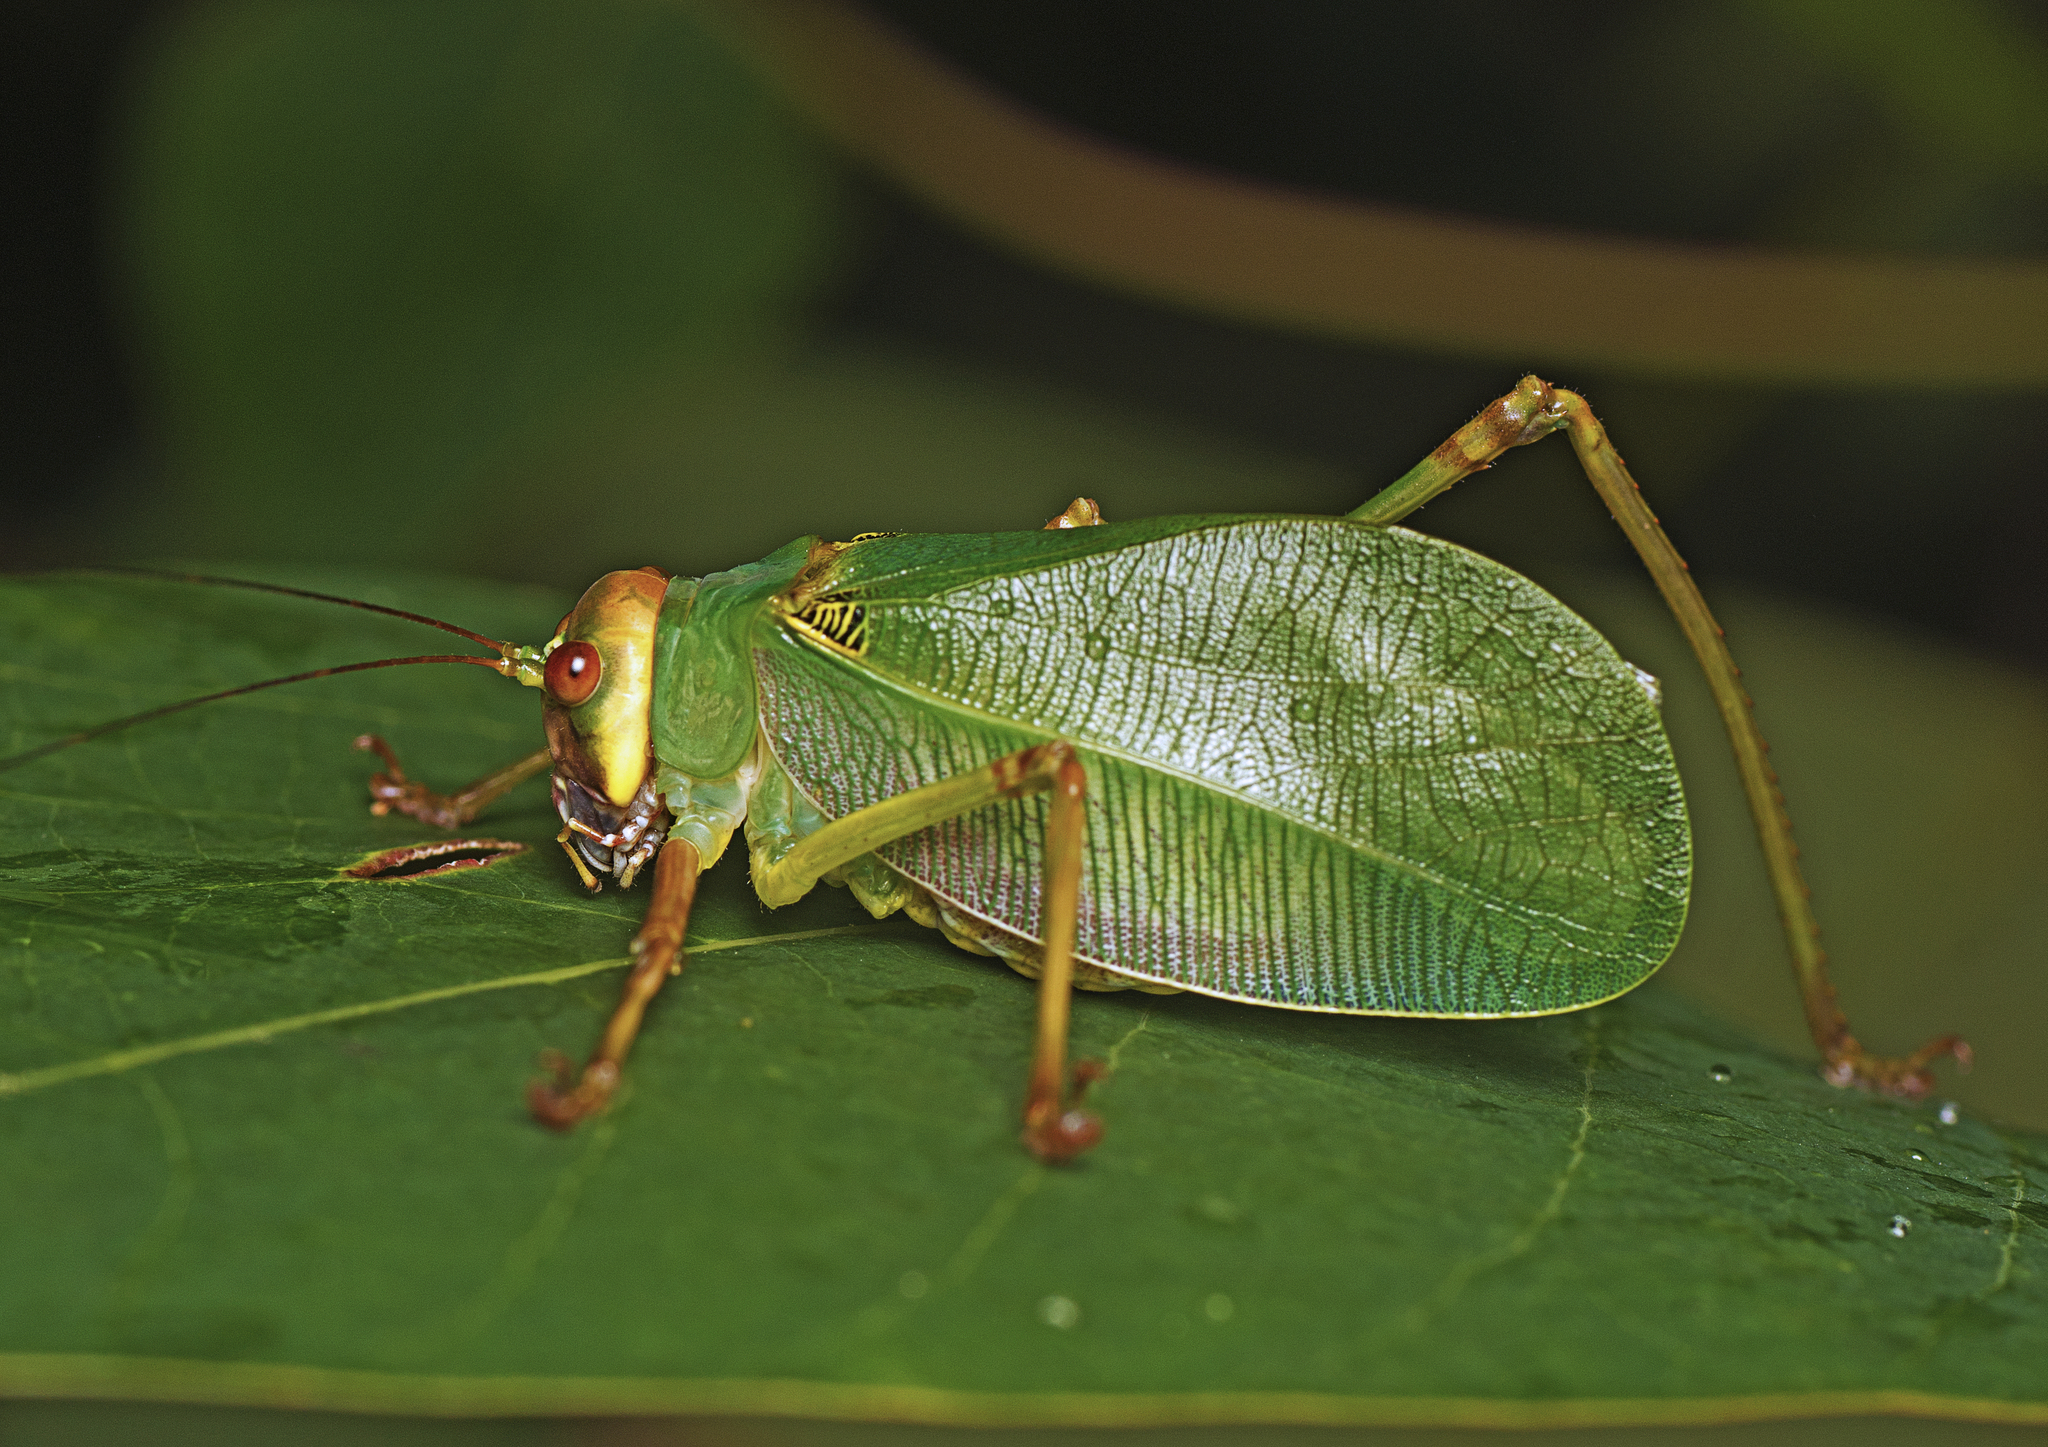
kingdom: Animalia
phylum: Arthropoda
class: Insecta
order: Orthoptera
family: Tettigoniidae
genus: Ozphyllum
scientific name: Ozphyllum naskreckii
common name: Neskrecki's bush katydid
